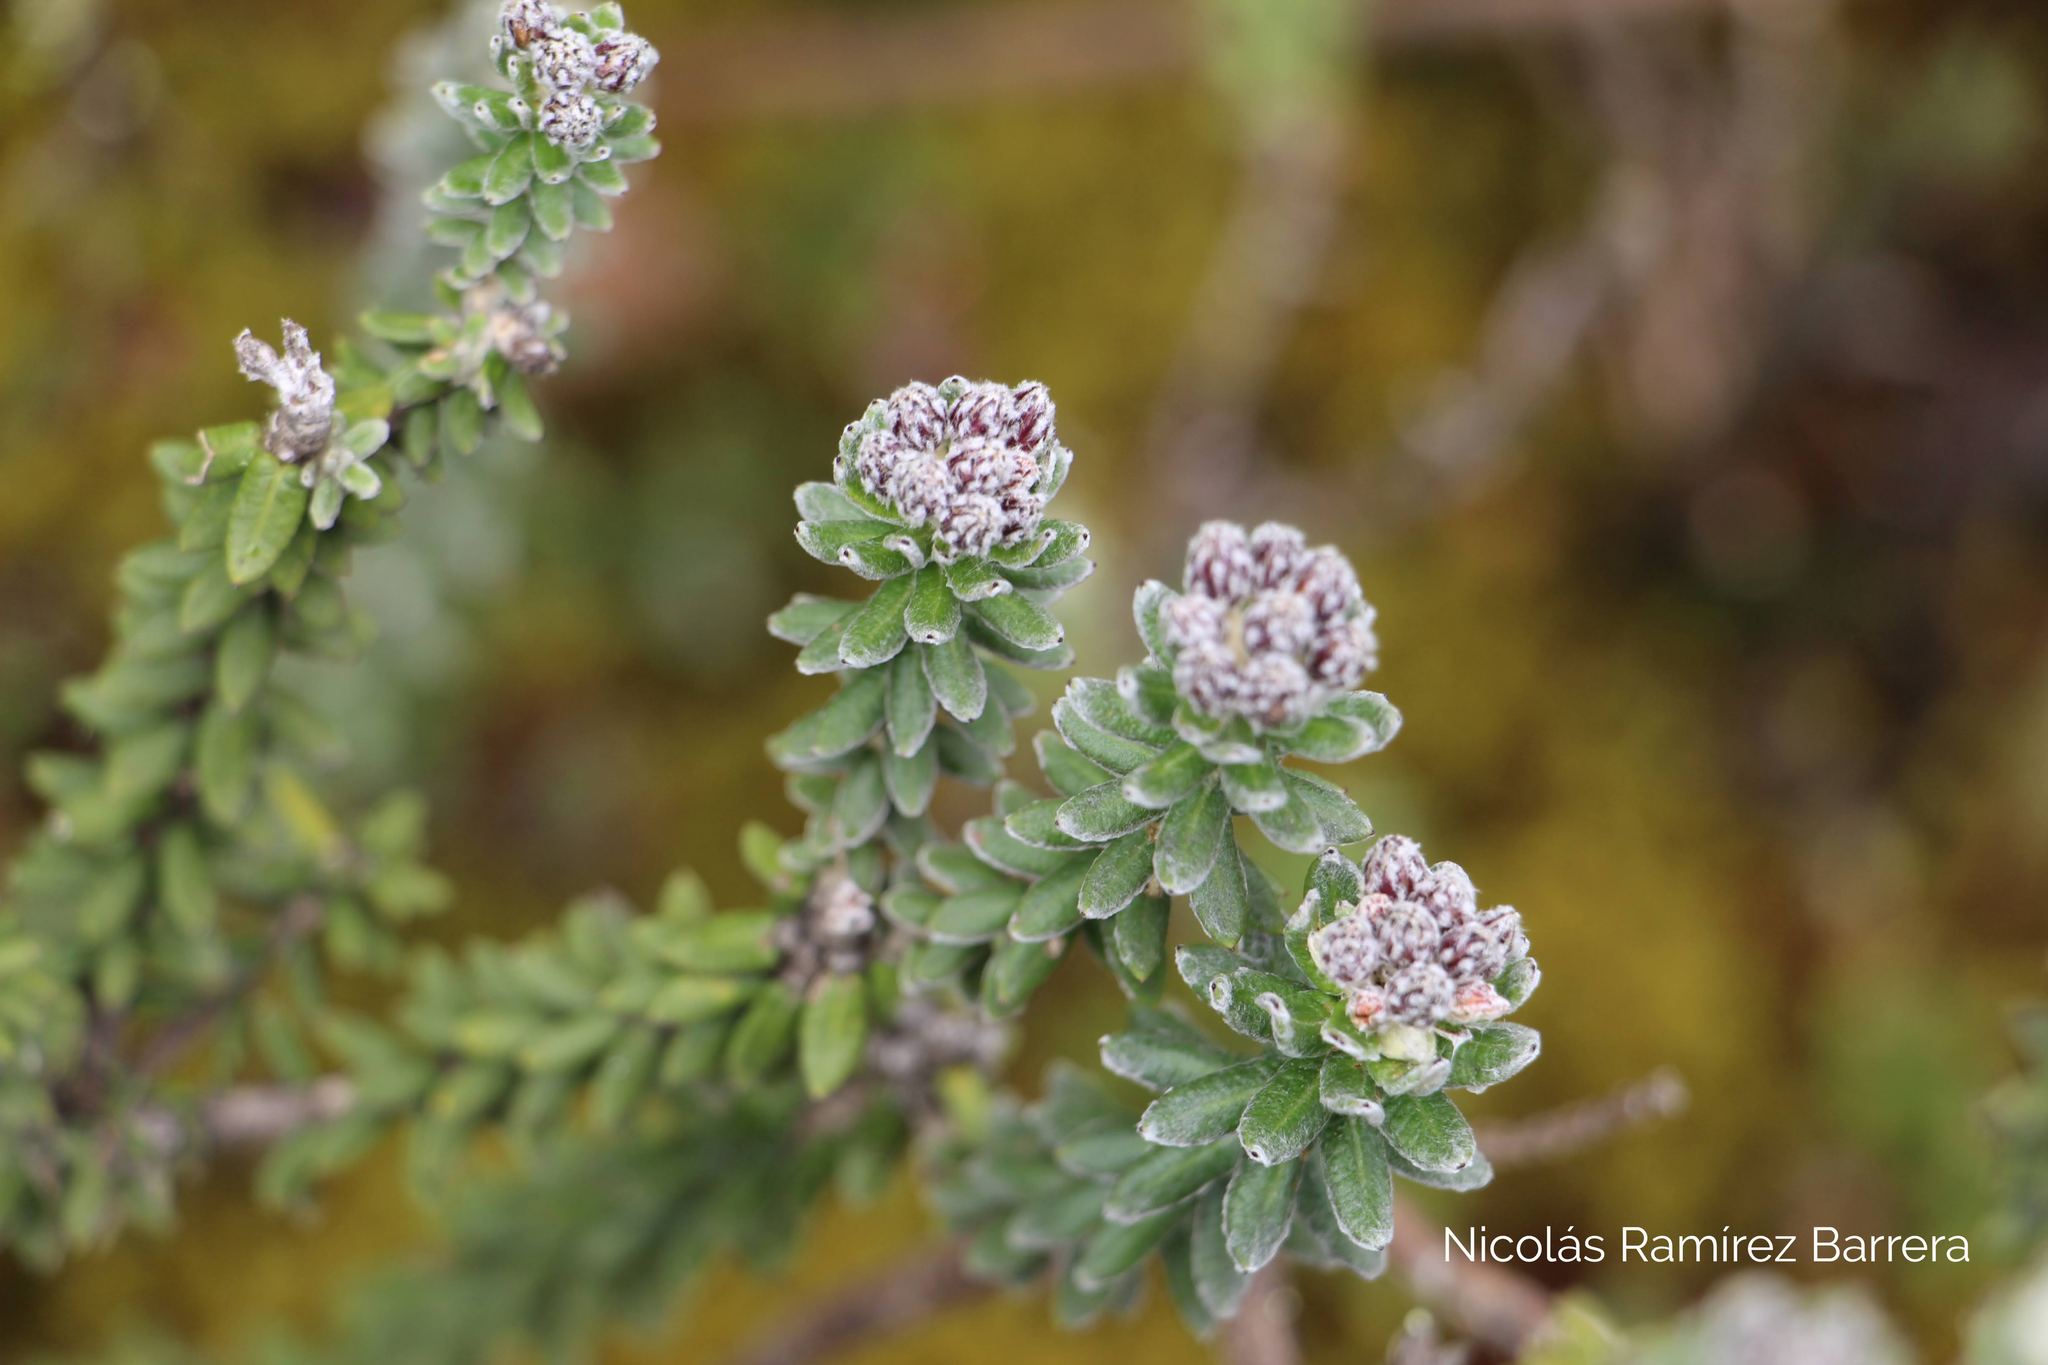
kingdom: Plantae
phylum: Tracheophyta
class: Magnoliopsida
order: Asterales
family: Asteraceae
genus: Linochilus
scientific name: Linochilus phylicoides
